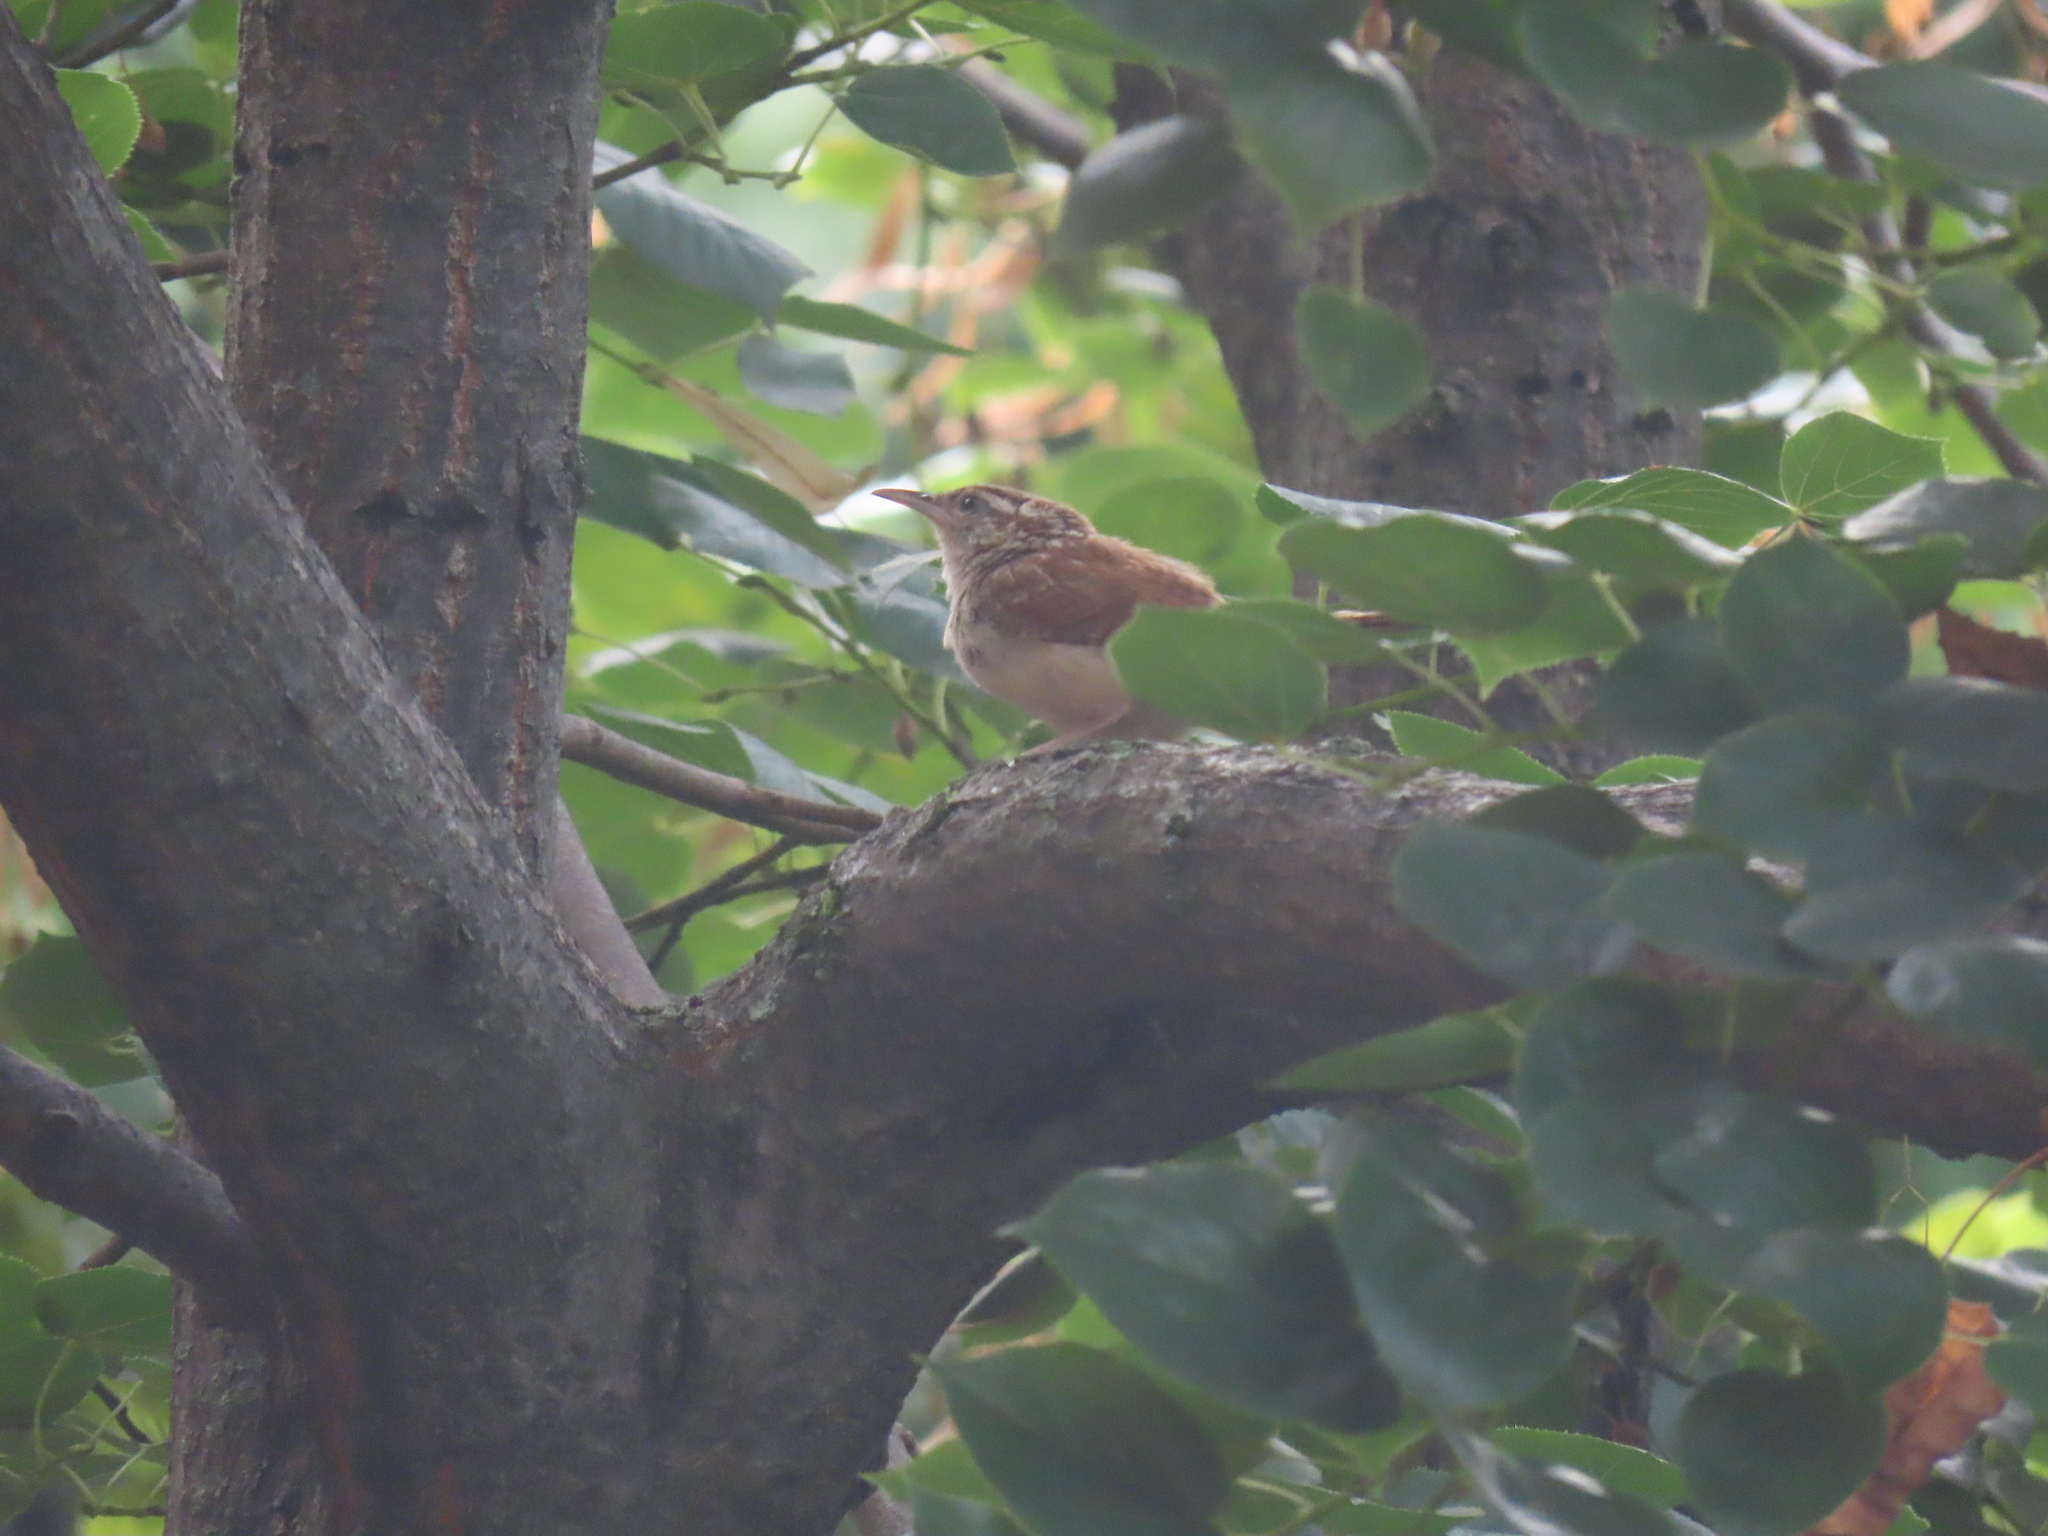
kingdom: Animalia
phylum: Chordata
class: Aves
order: Passeriformes
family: Troglodytidae
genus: Thryothorus
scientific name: Thryothorus ludovicianus
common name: Carolina wren
